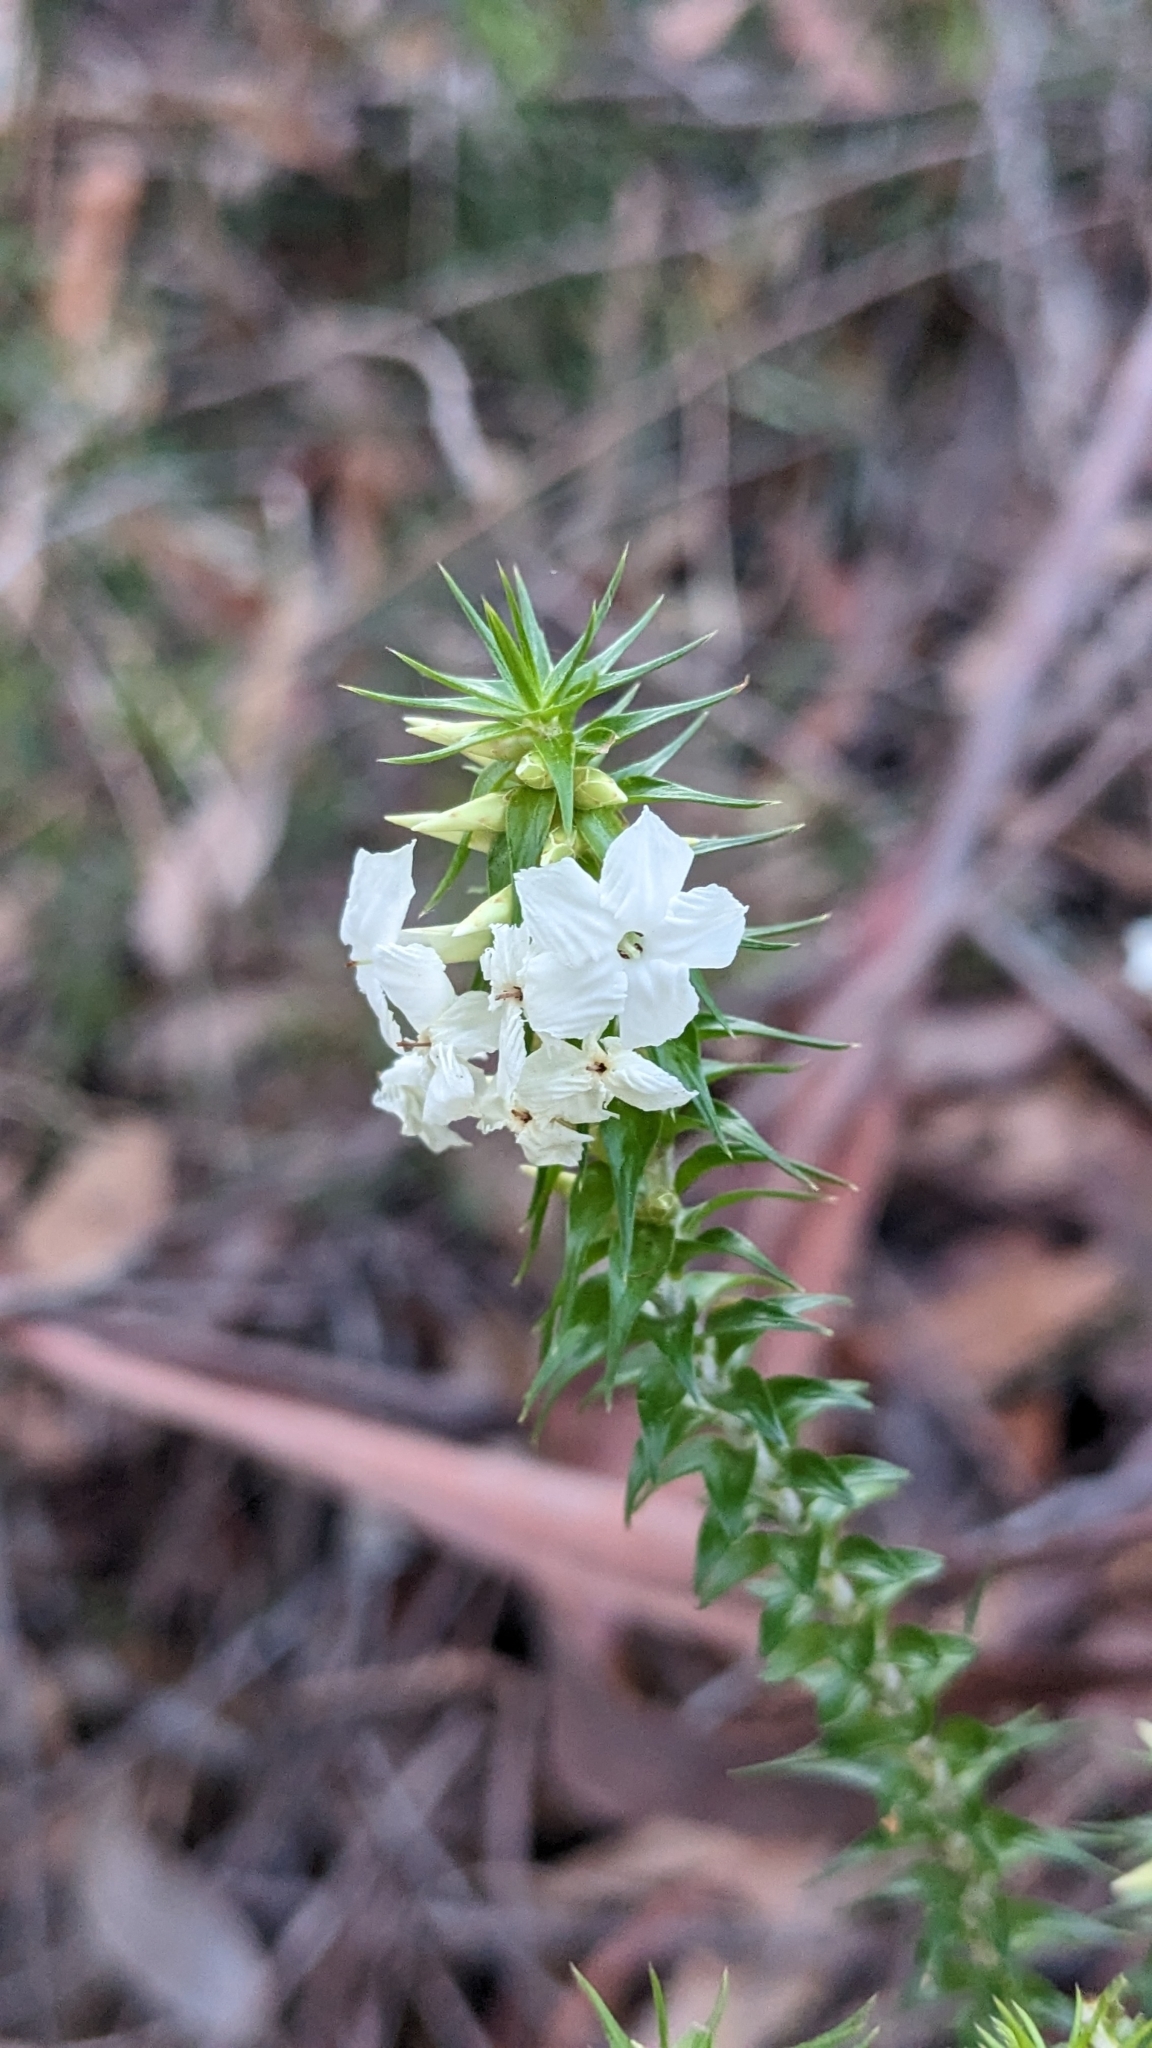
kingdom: Plantae
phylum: Tracheophyta
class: Magnoliopsida
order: Ericales
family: Ericaceae
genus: Woollsia
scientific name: Woollsia pungens
